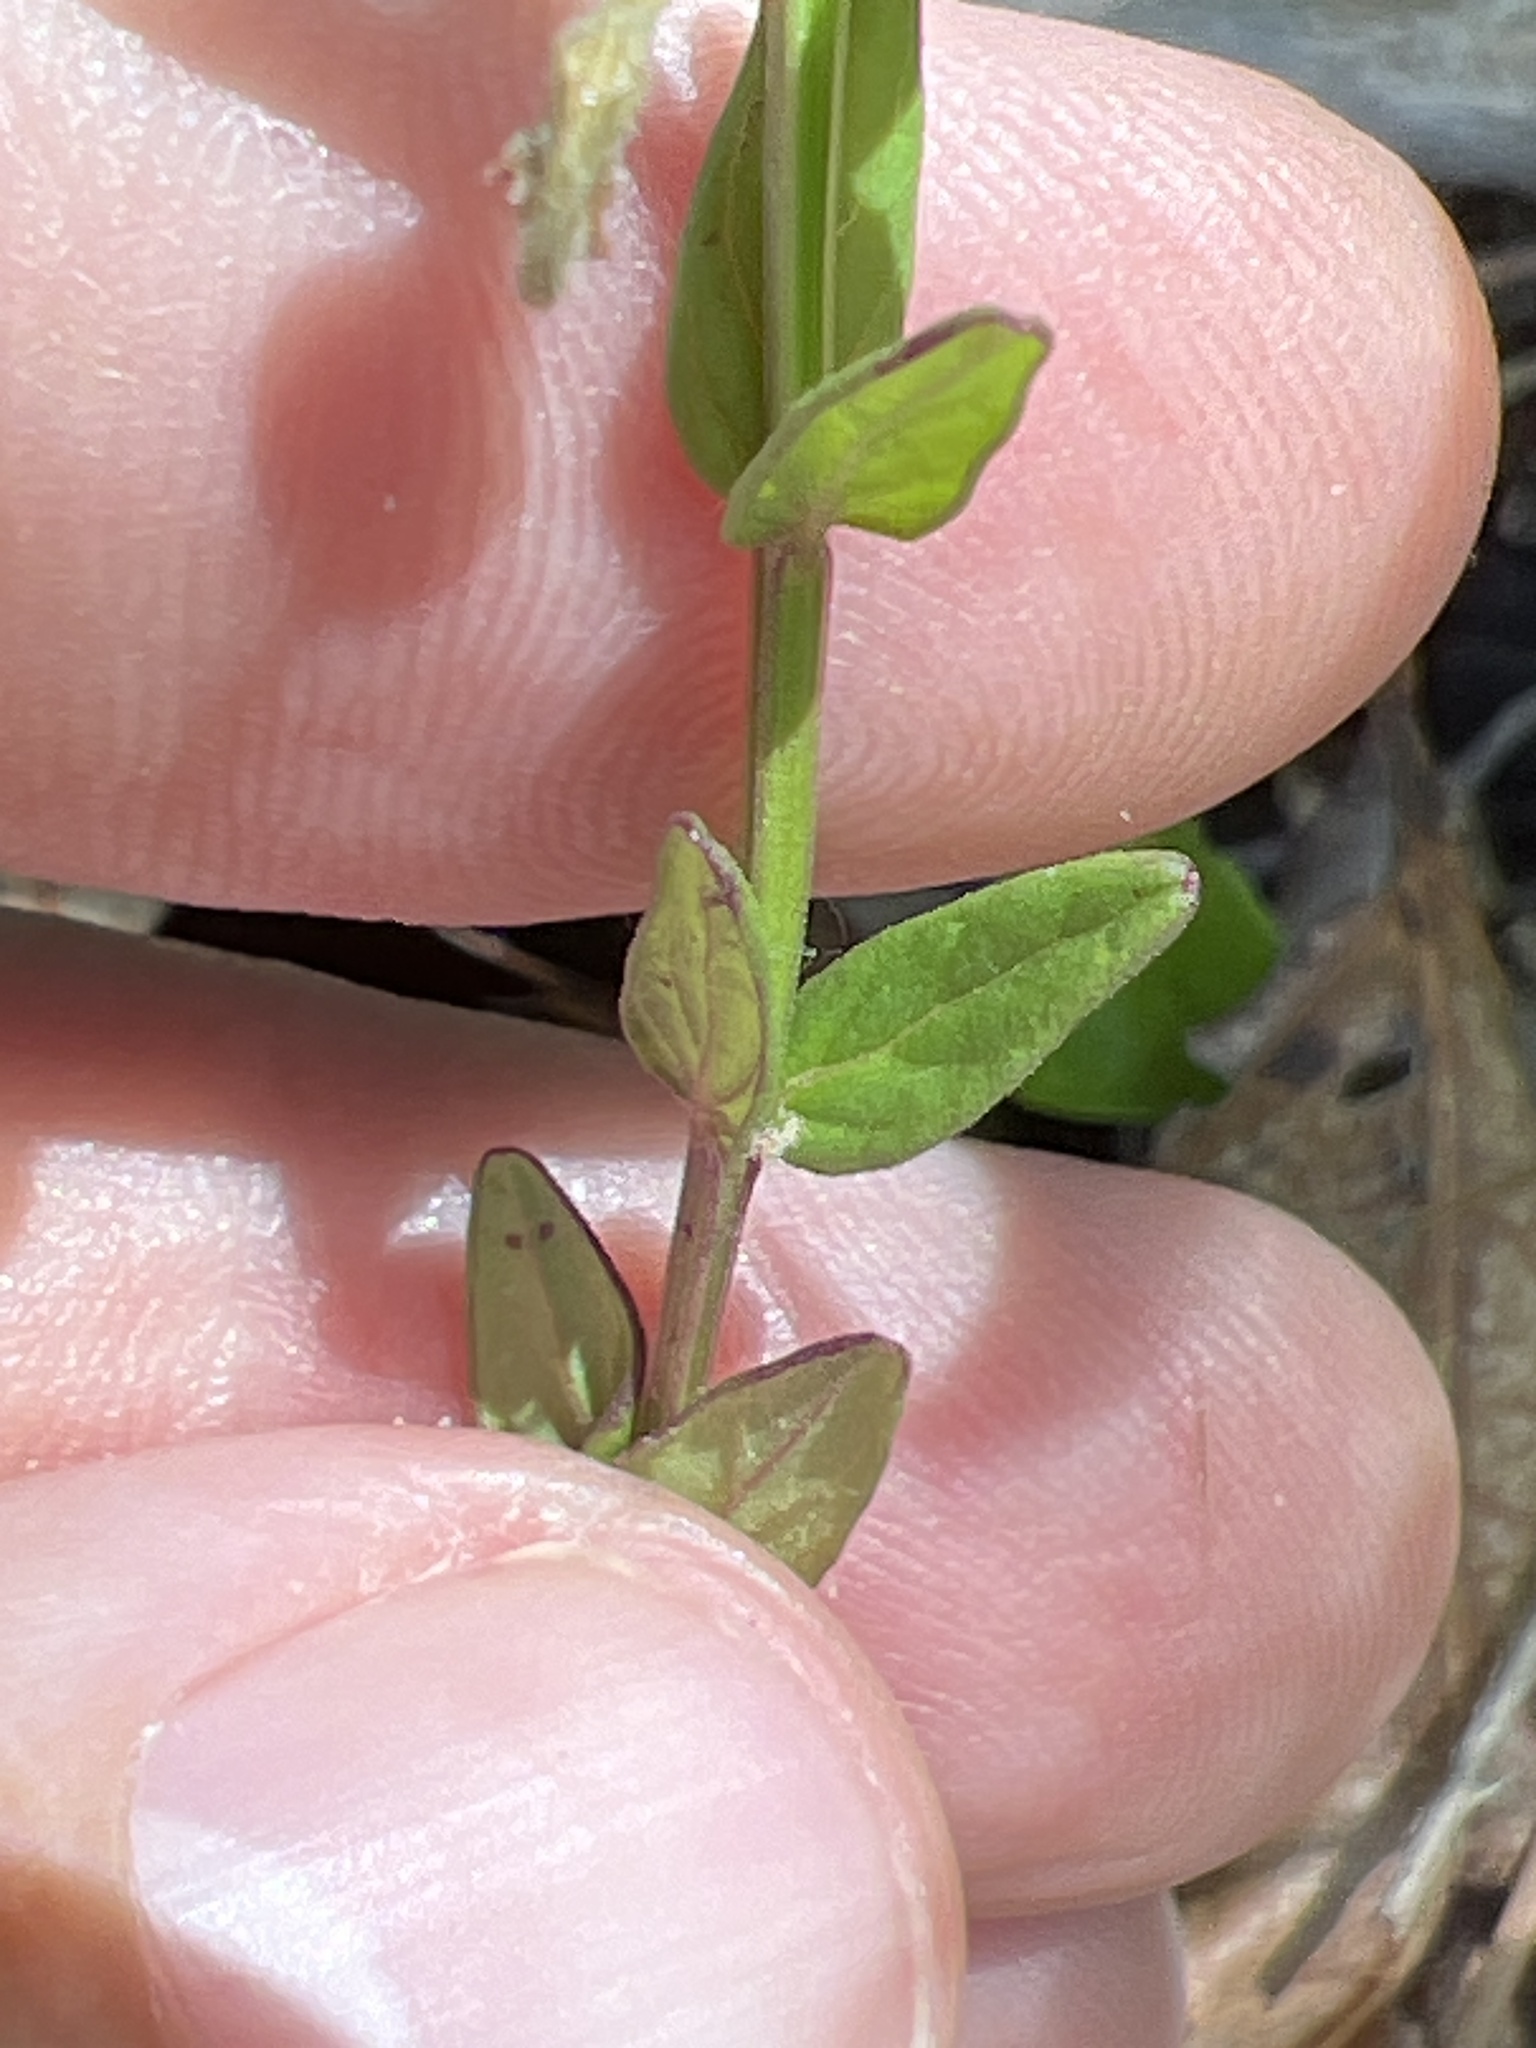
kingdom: Plantae
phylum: Tracheophyta
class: Magnoliopsida
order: Lamiales
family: Lamiaceae
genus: Scutellaria
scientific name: Scutellaria parvula
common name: Little scullcap
